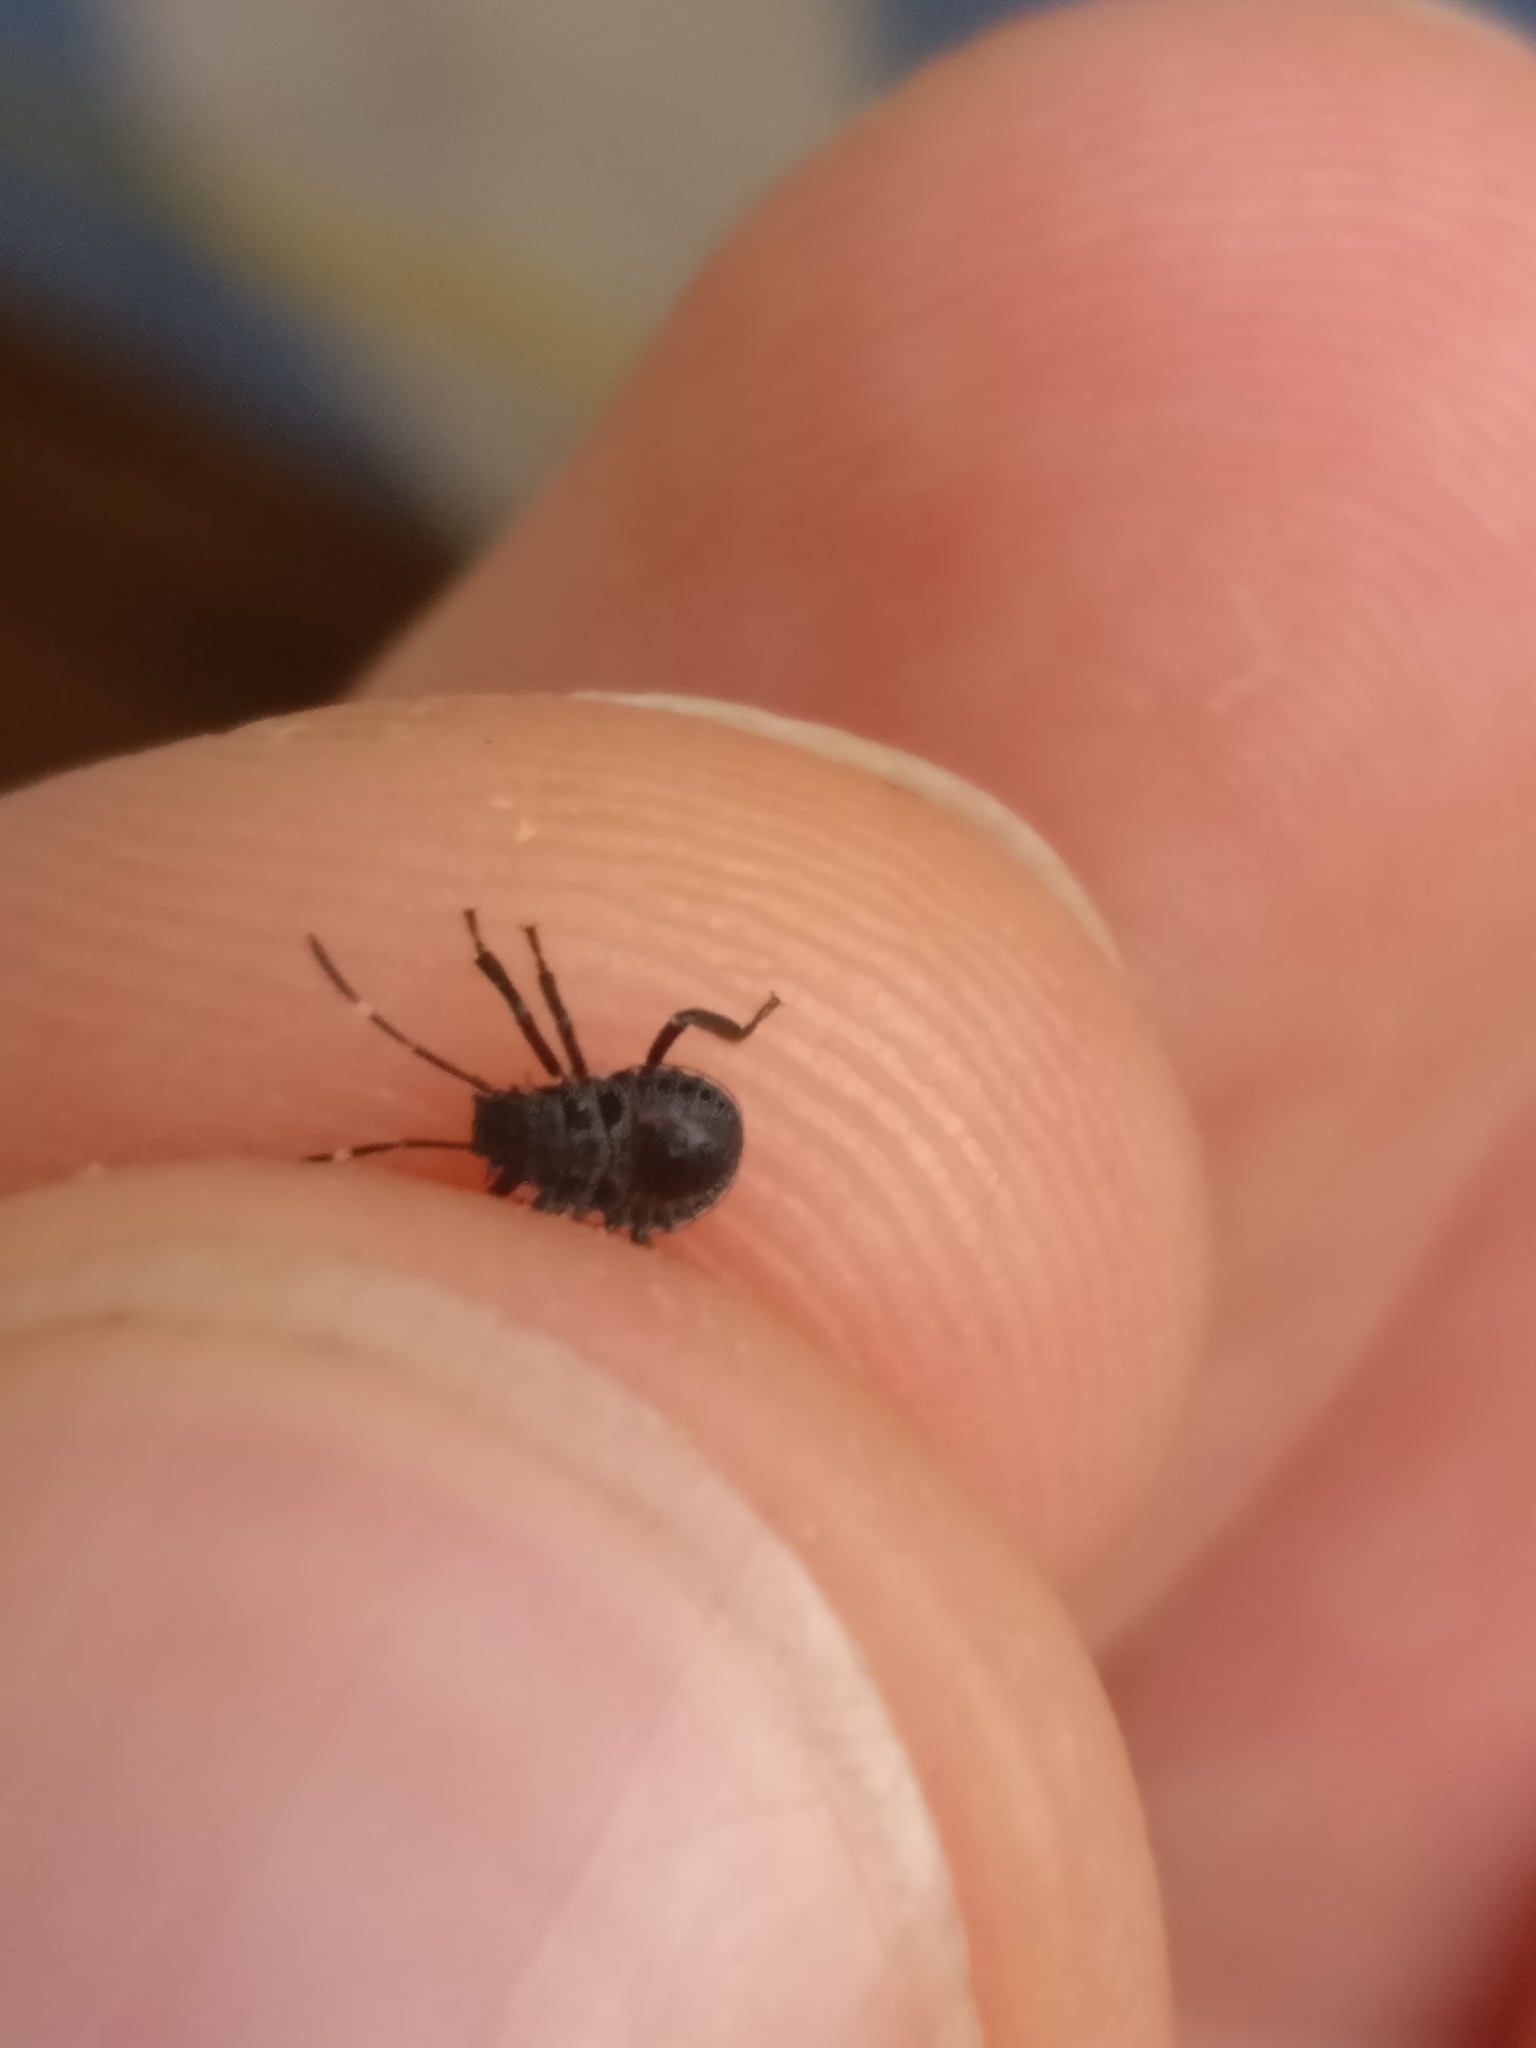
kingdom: Animalia
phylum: Arthropoda
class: Insecta
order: Hemiptera
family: Pentatomidae
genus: Halyomorpha
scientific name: Halyomorpha halys
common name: Brown marmorated stink bug
